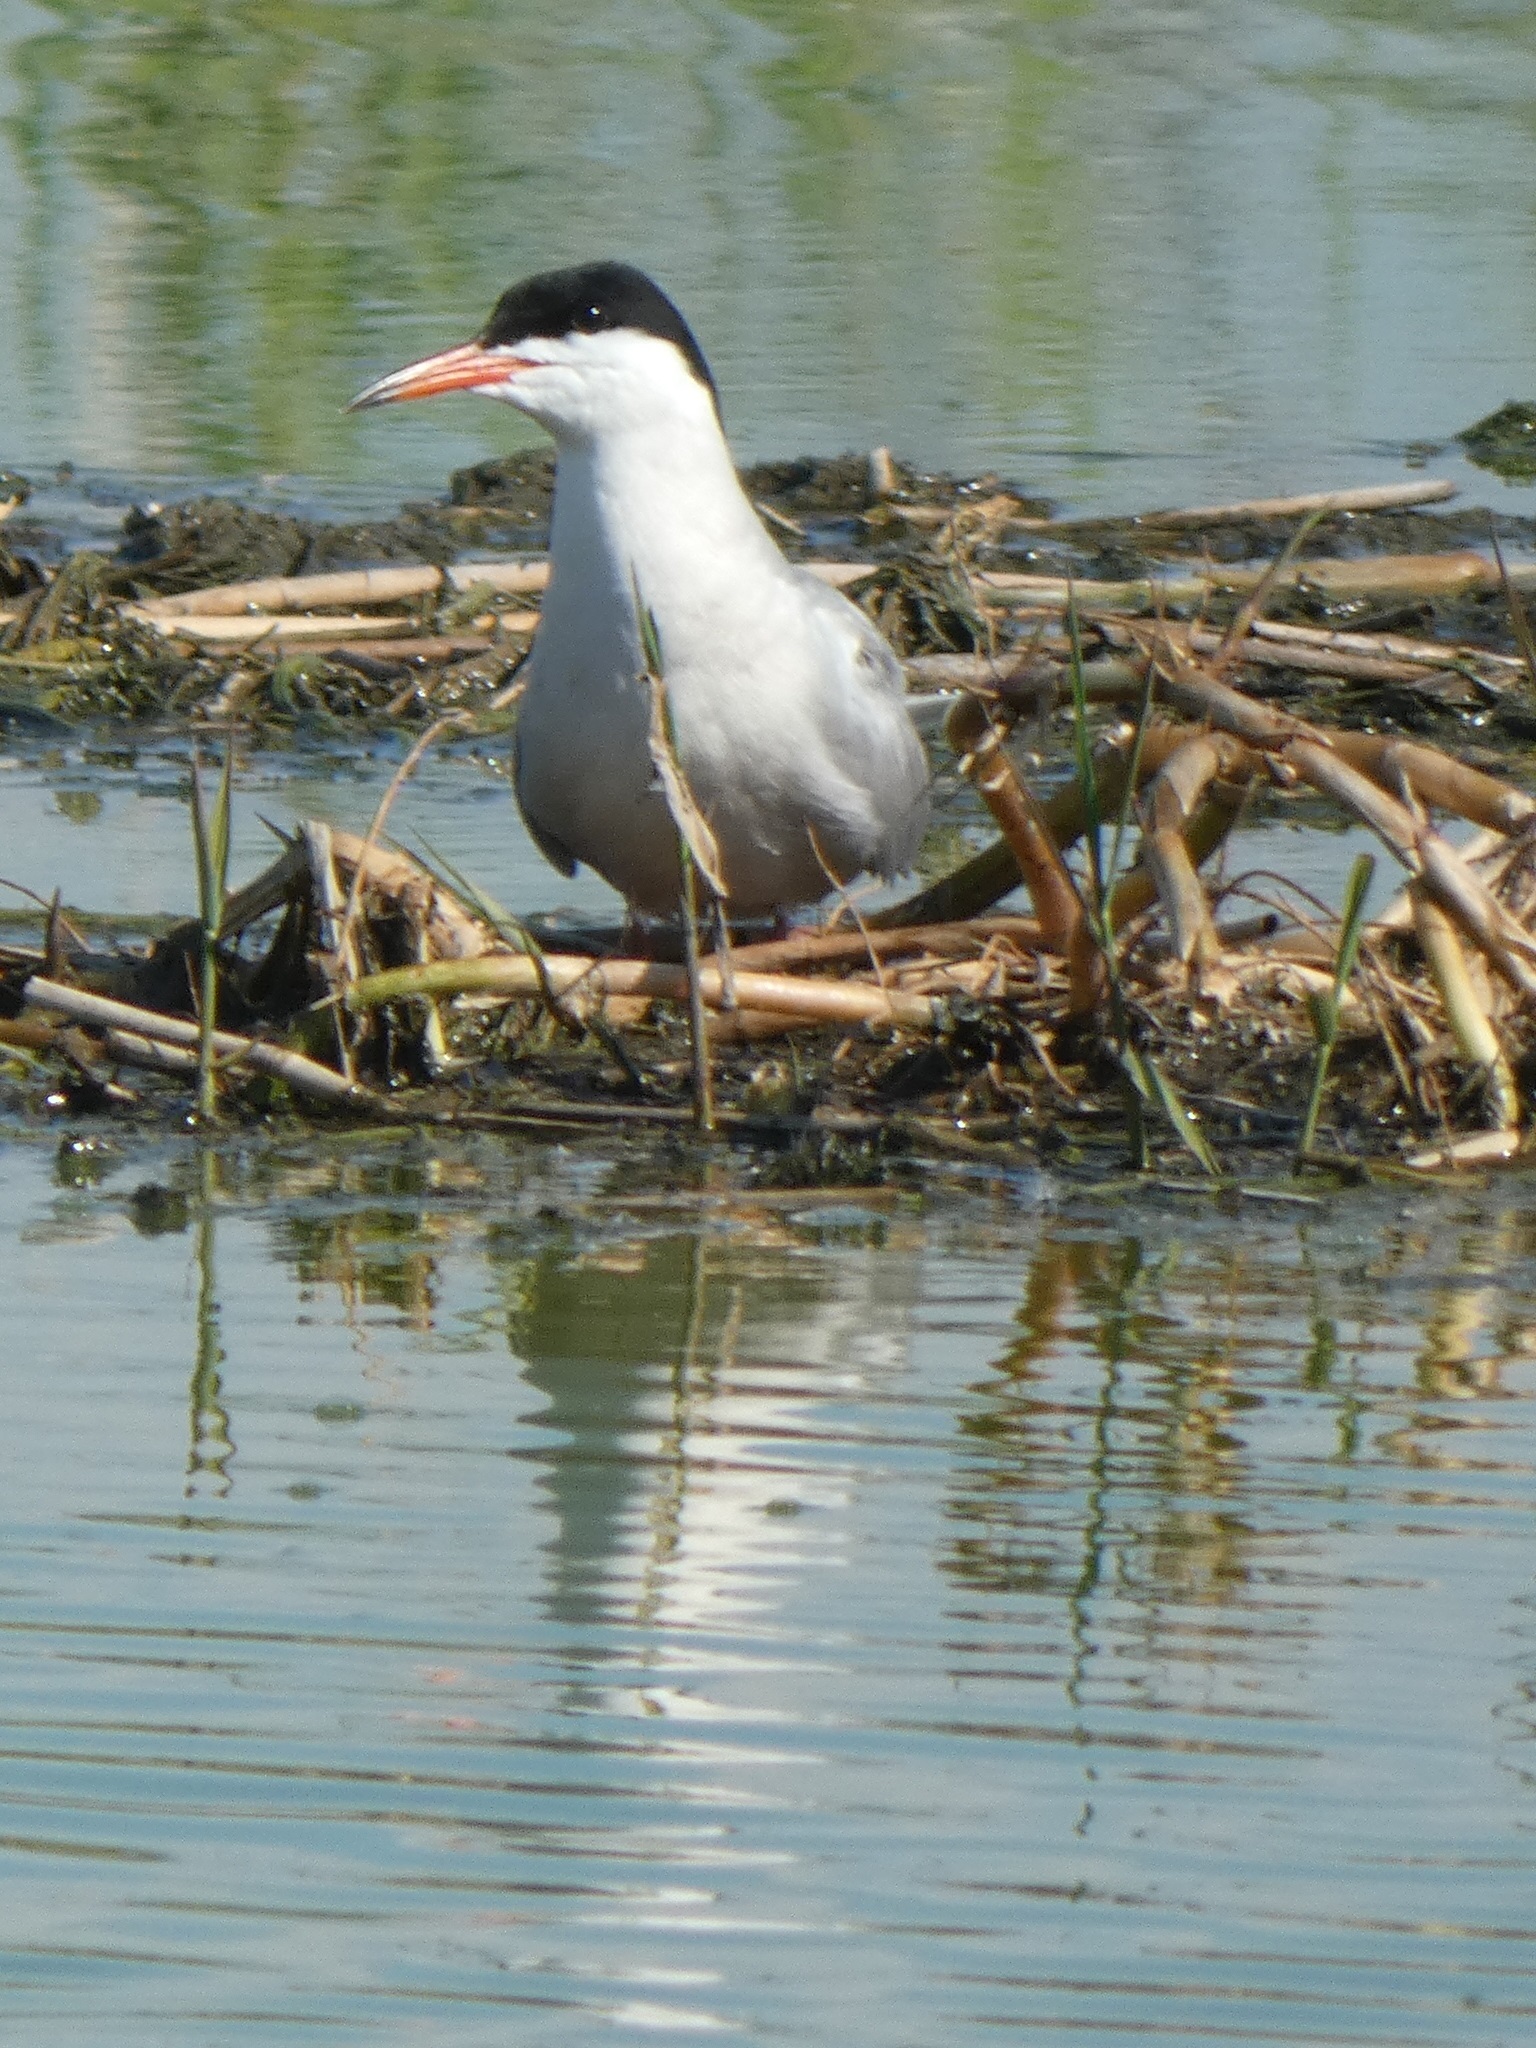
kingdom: Animalia
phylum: Chordata
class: Aves
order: Charadriiformes
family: Laridae
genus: Sterna
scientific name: Sterna hirundo
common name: Common tern
